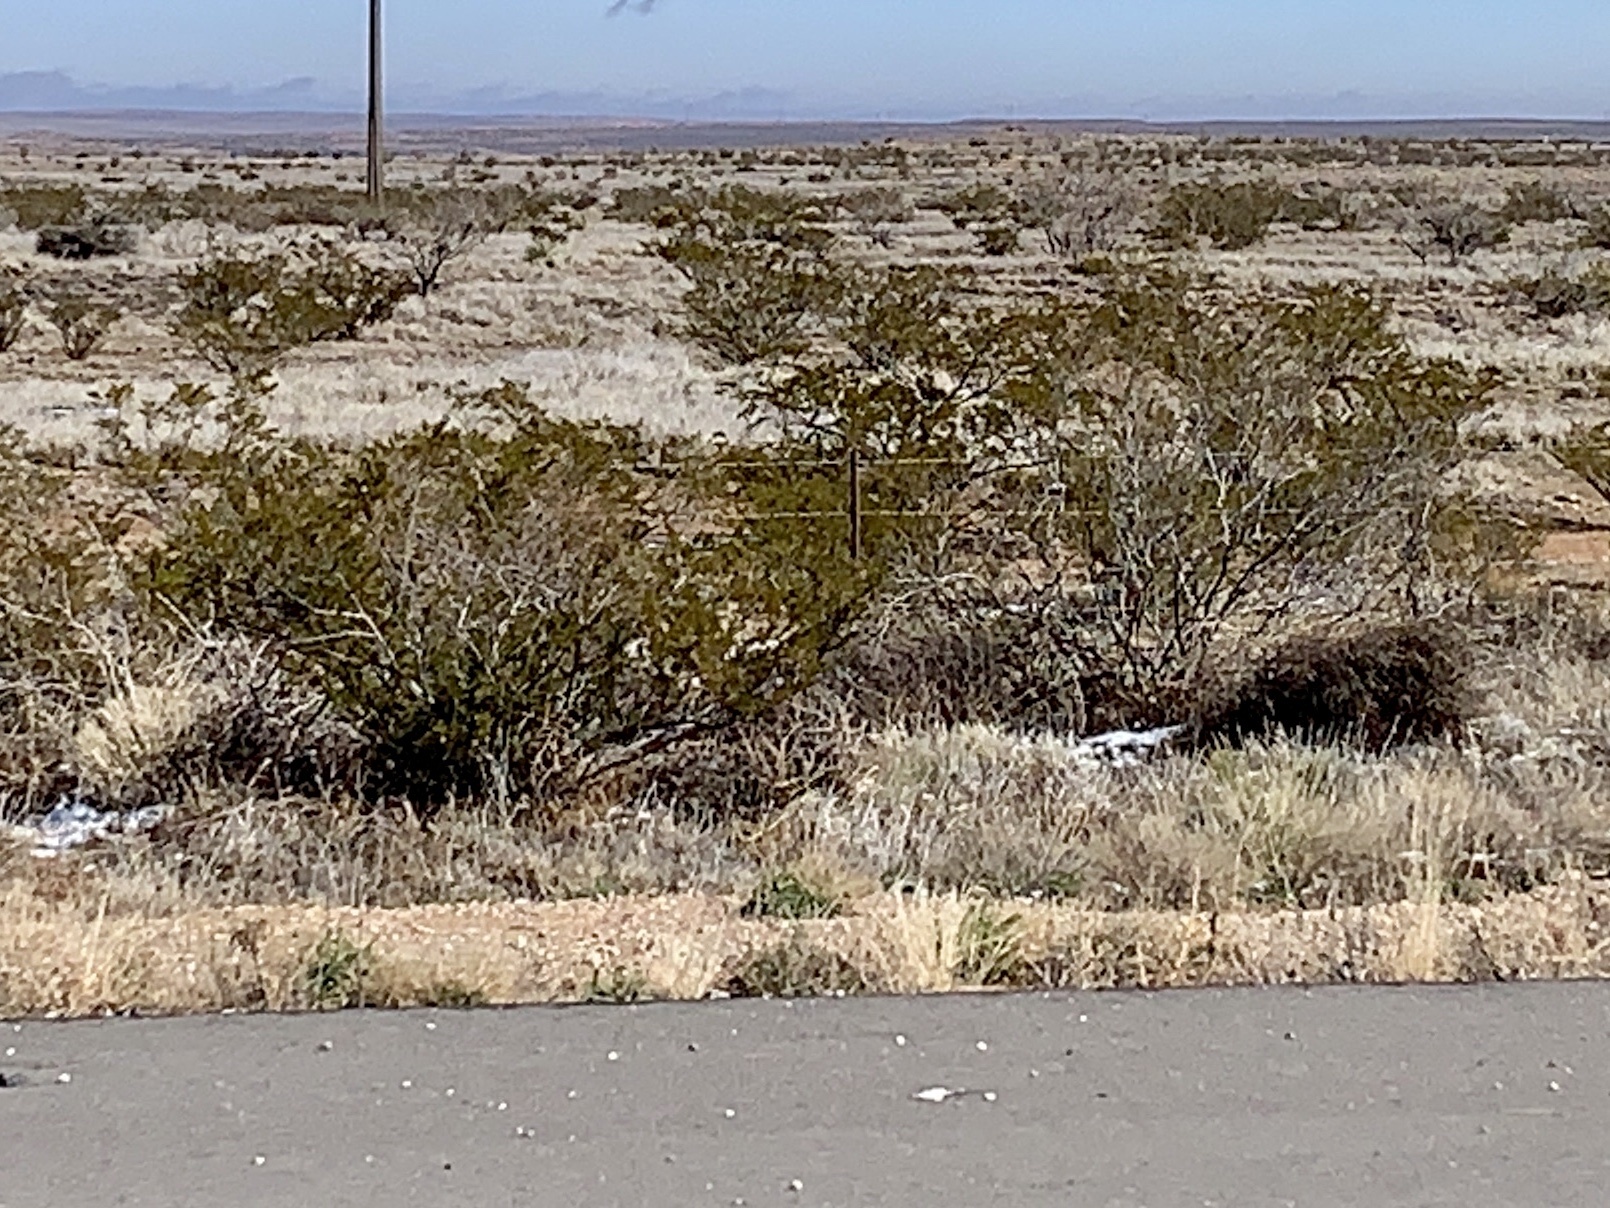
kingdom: Plantae
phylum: Tracheophyta
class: Magnoliopsida
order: Zygophyllales
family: Zygophyllaceae
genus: Larrea
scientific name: Larrea tridentata
